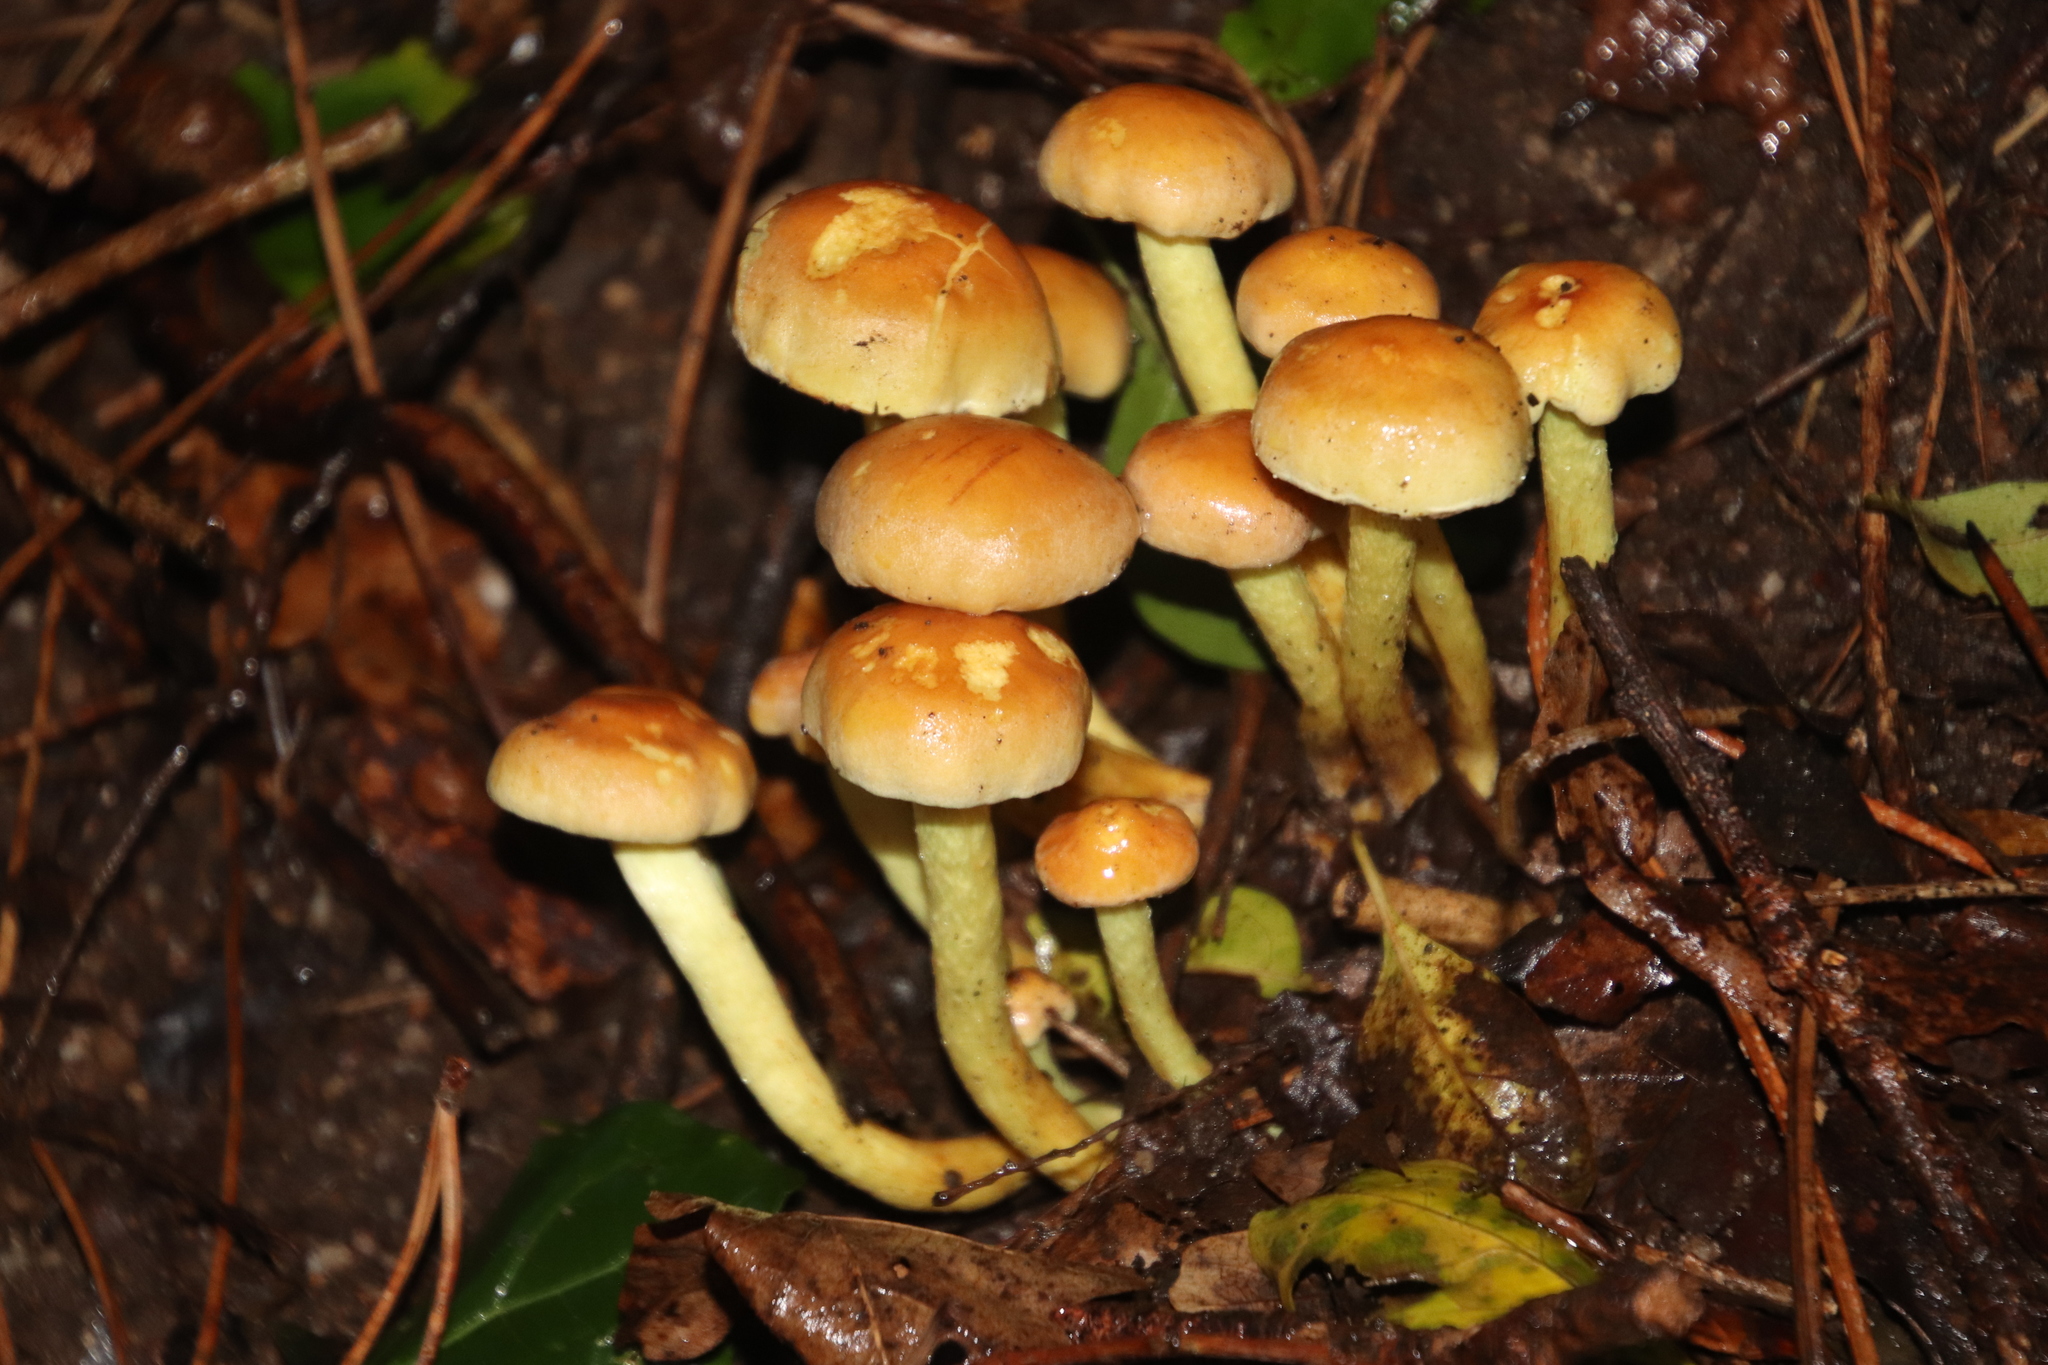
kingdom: Fungi
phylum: Basidiomycota
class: Agaricomycetes
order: Agaricales
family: Strophariaceae
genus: Hypholoma
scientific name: Hypholoma fasciculare
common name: Sulphur tuft
